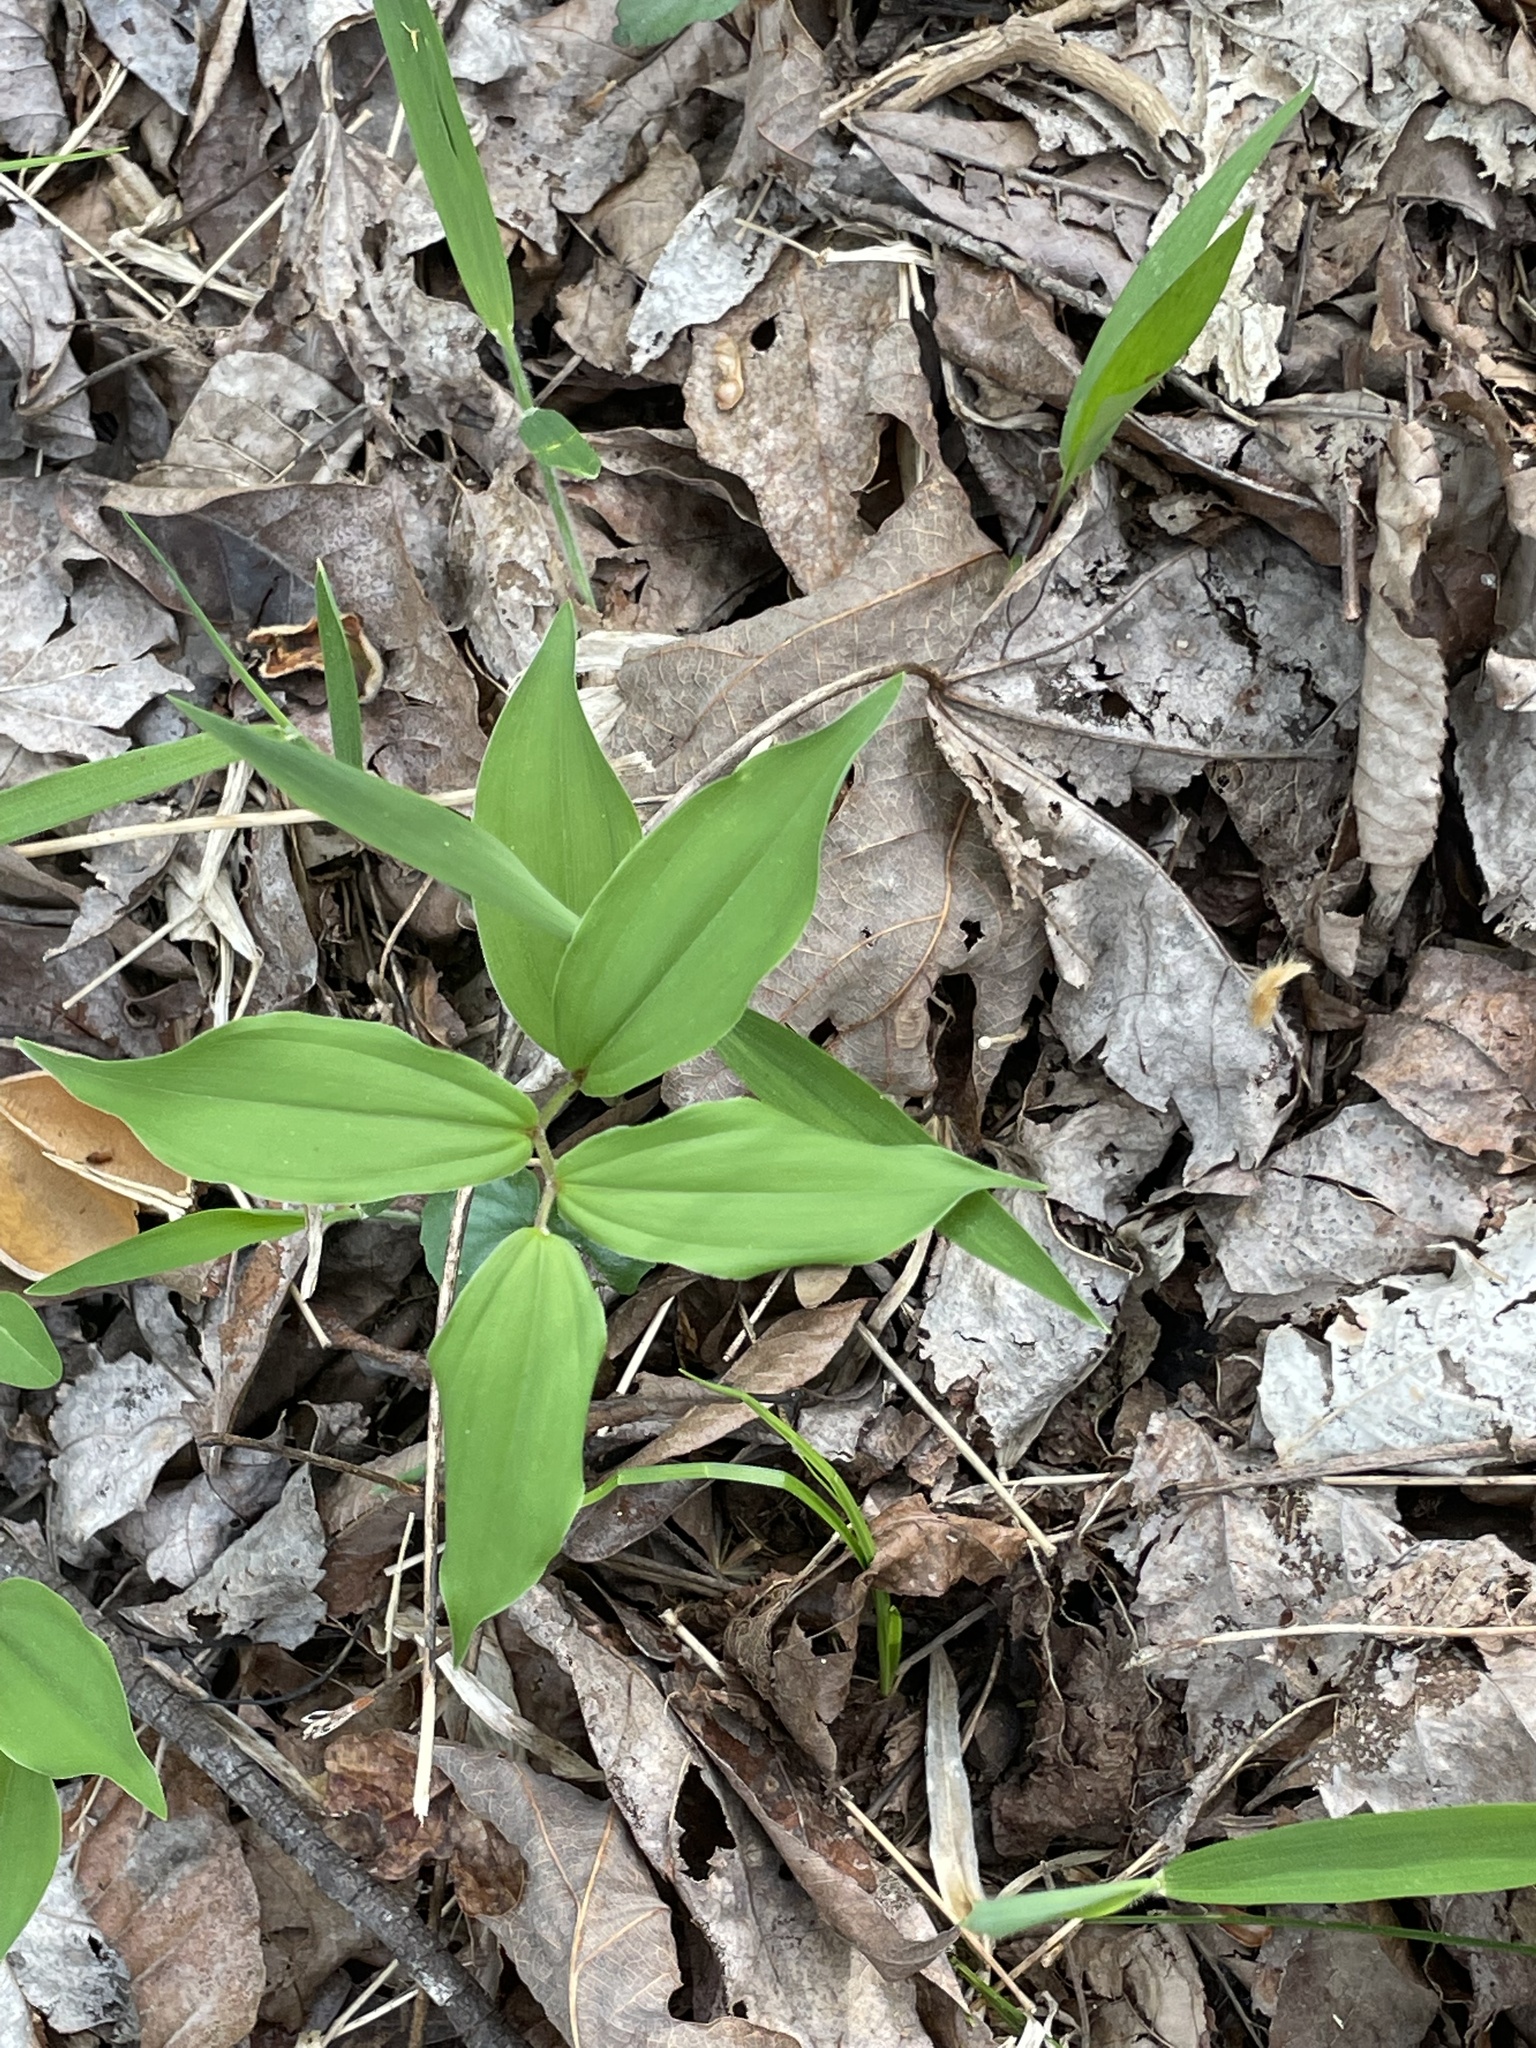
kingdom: Plantae
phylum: Tracheophyta
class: Liliopsida
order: Asparagales
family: Asparagaceae
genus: Maianthemum
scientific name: Maianthemum racemosum
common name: False spikenard
